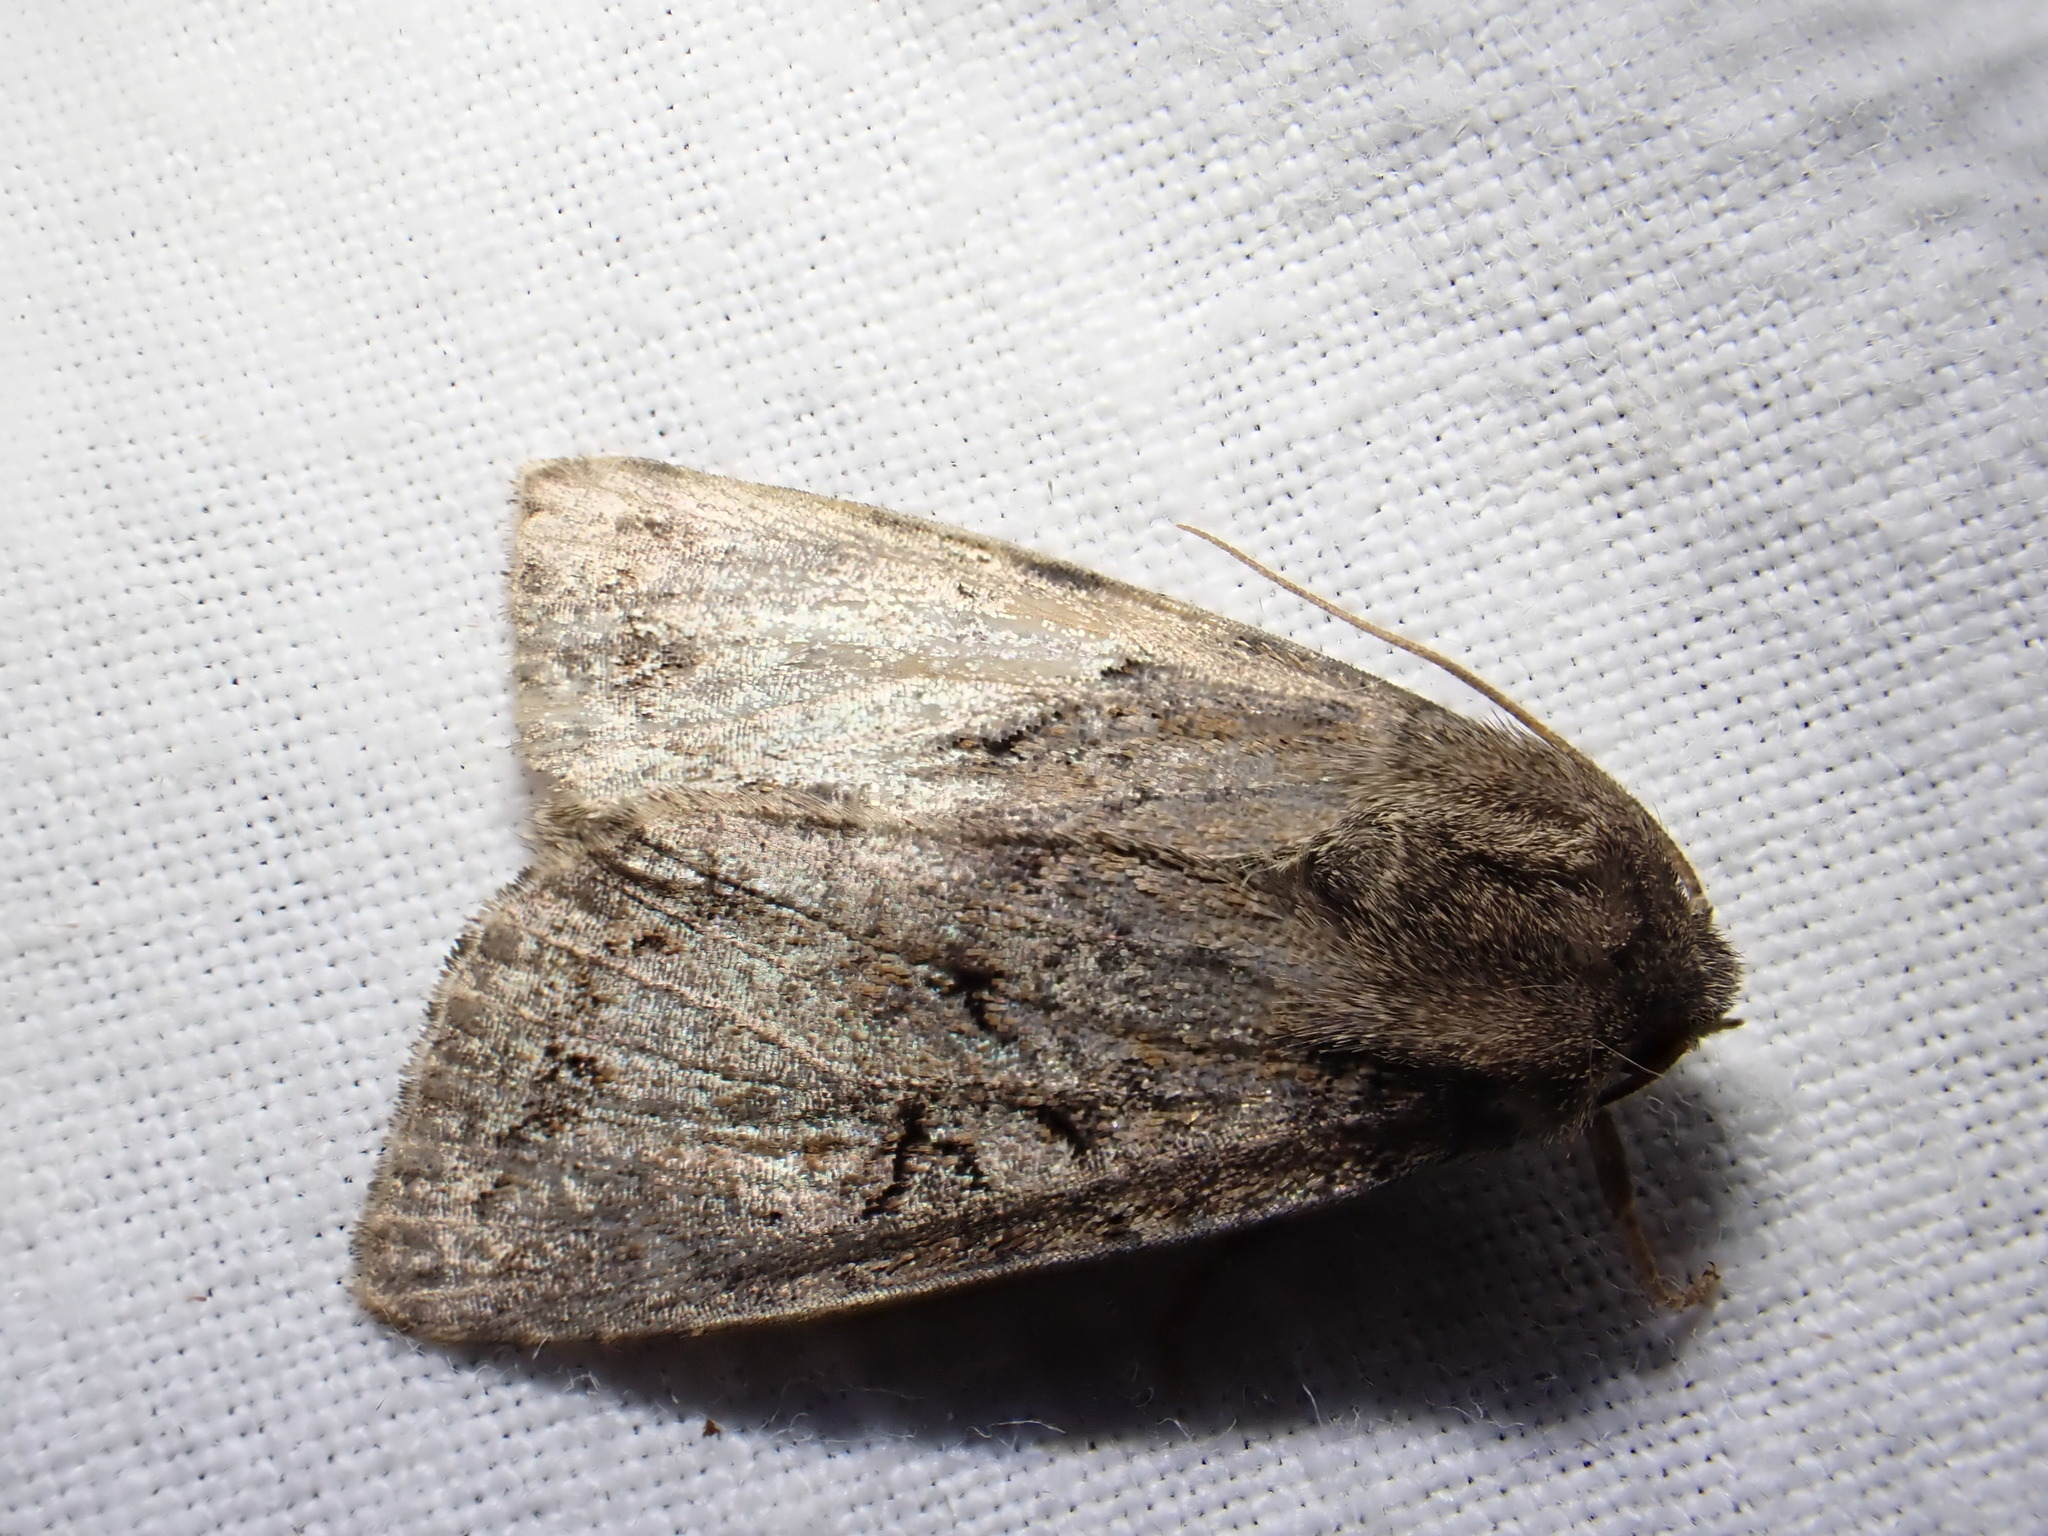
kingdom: Animalia
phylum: Arthropoda
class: Insecta
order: Lepidoptera
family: Noctuidae
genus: Apterogenum
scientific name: Apterogenum ypsillon
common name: Dingy shears
